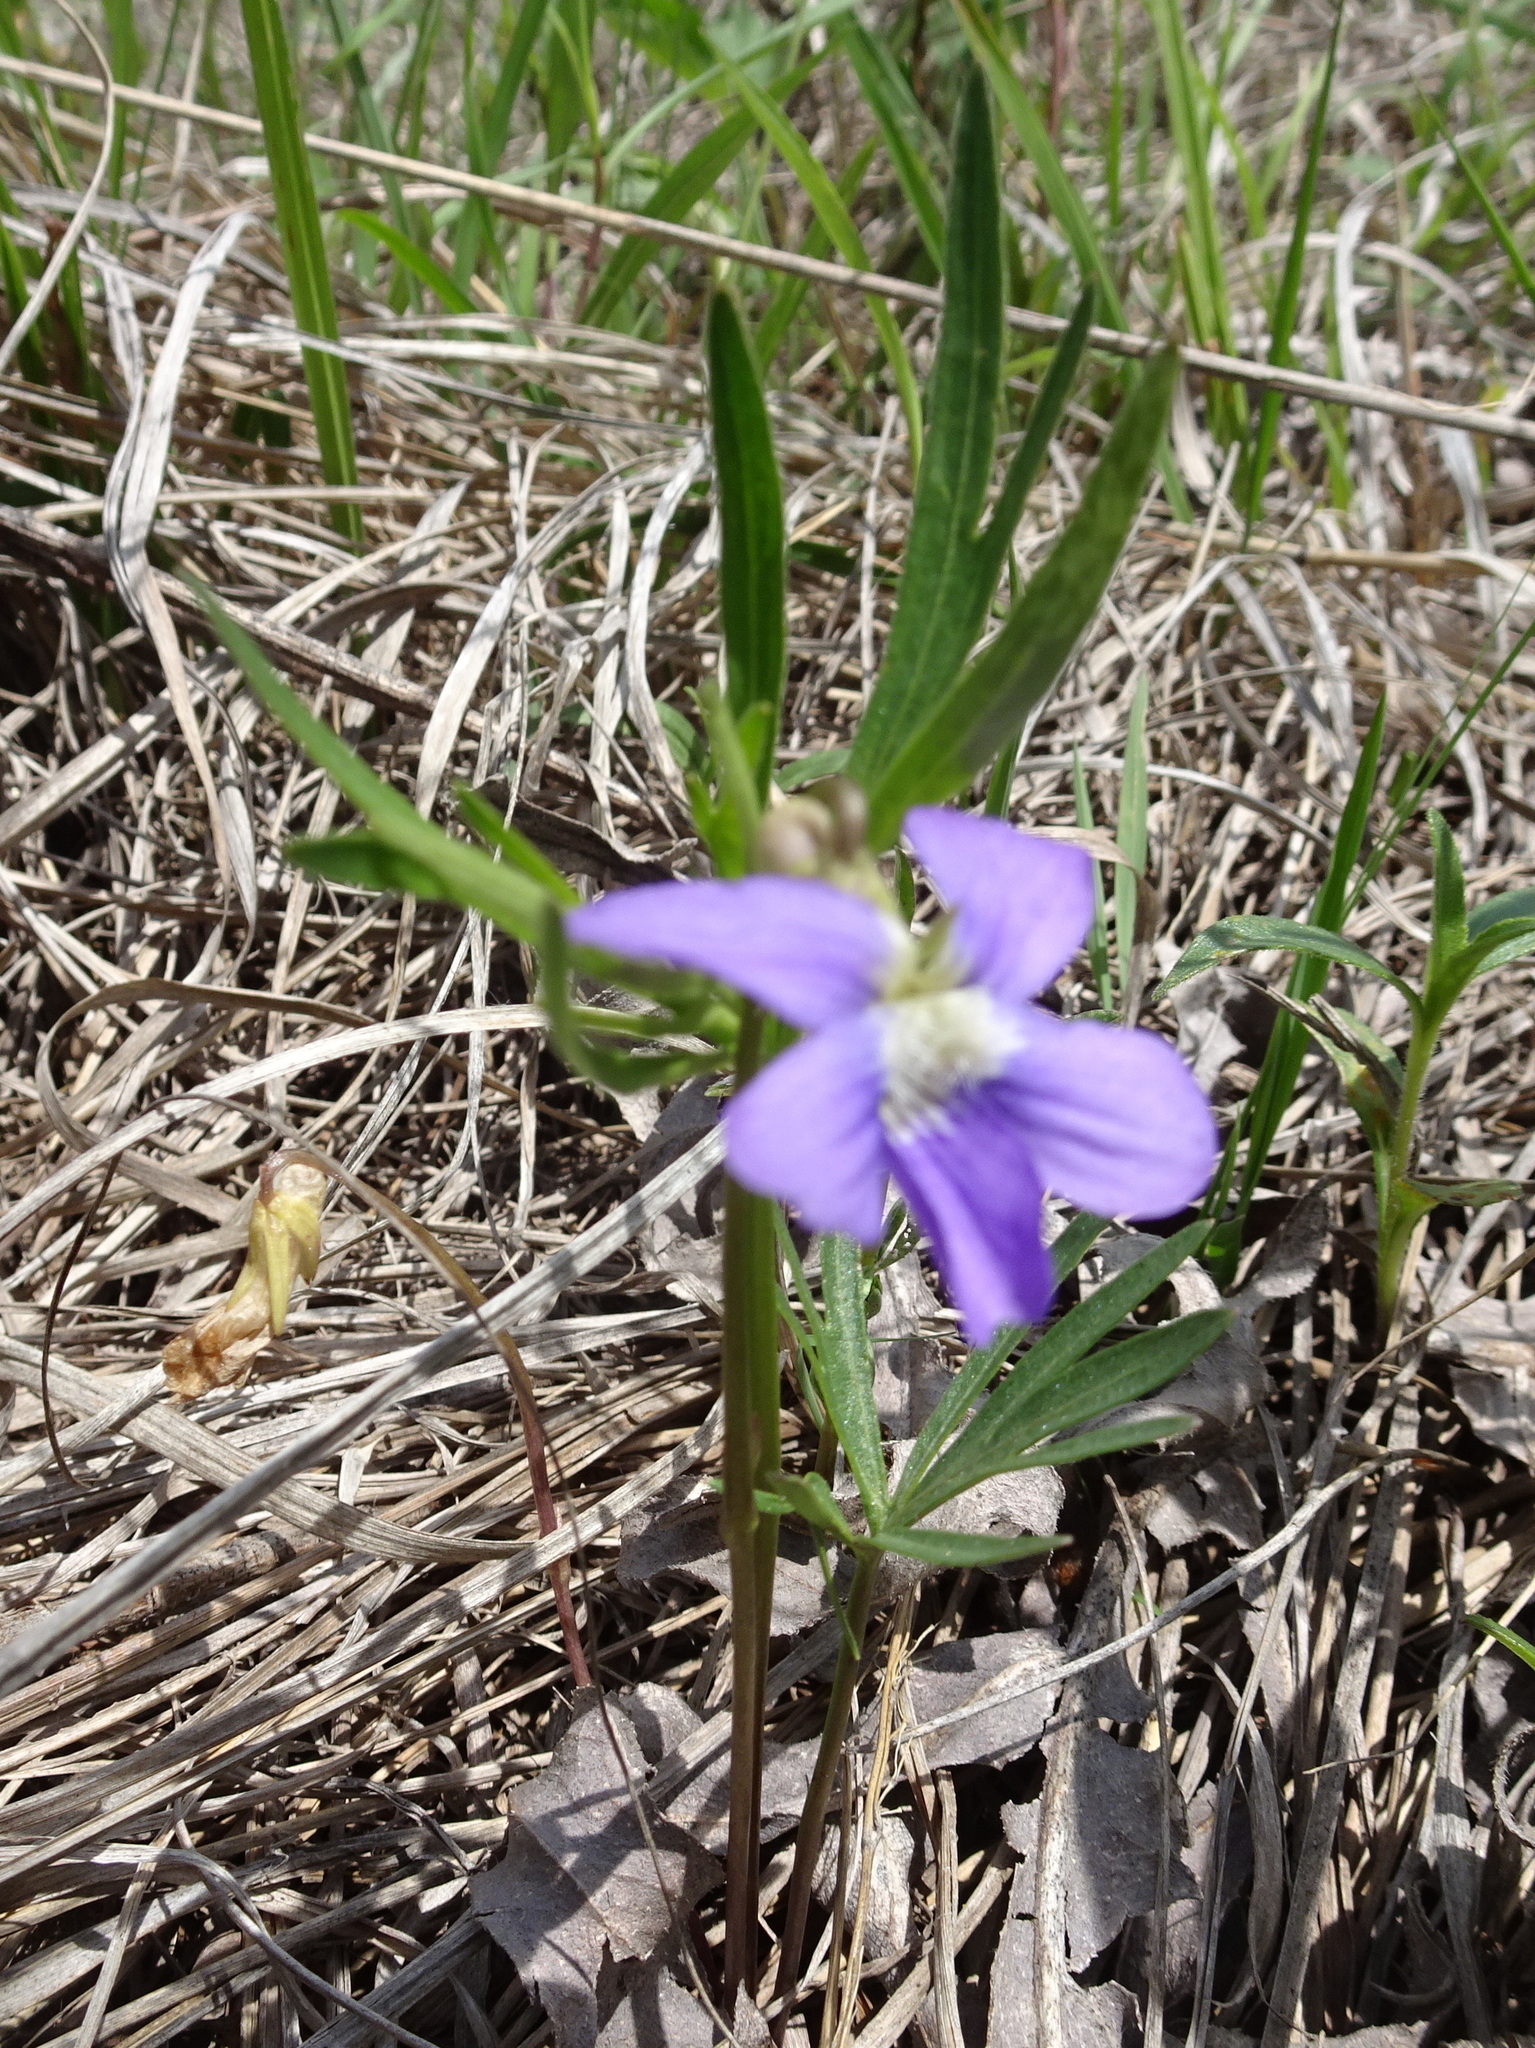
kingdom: Plantae
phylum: Tracheophyta
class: Magnoliopsida
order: Malpighiales
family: Violaceae
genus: Viola
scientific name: Viola pedatifida
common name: Prairie violet
